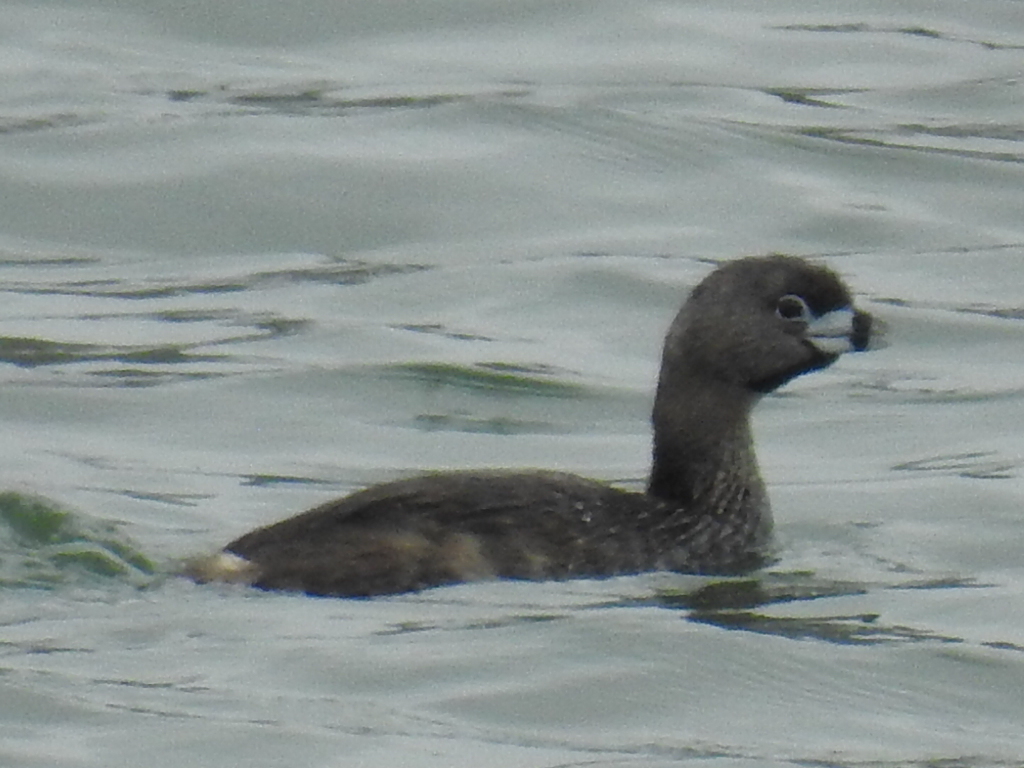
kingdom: Animalia
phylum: Chordata
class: Aves
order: Podicipediformes
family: Podicipedidae
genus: Podilymbus
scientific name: Podilymbus podiceps
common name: Pied-billed grebe
